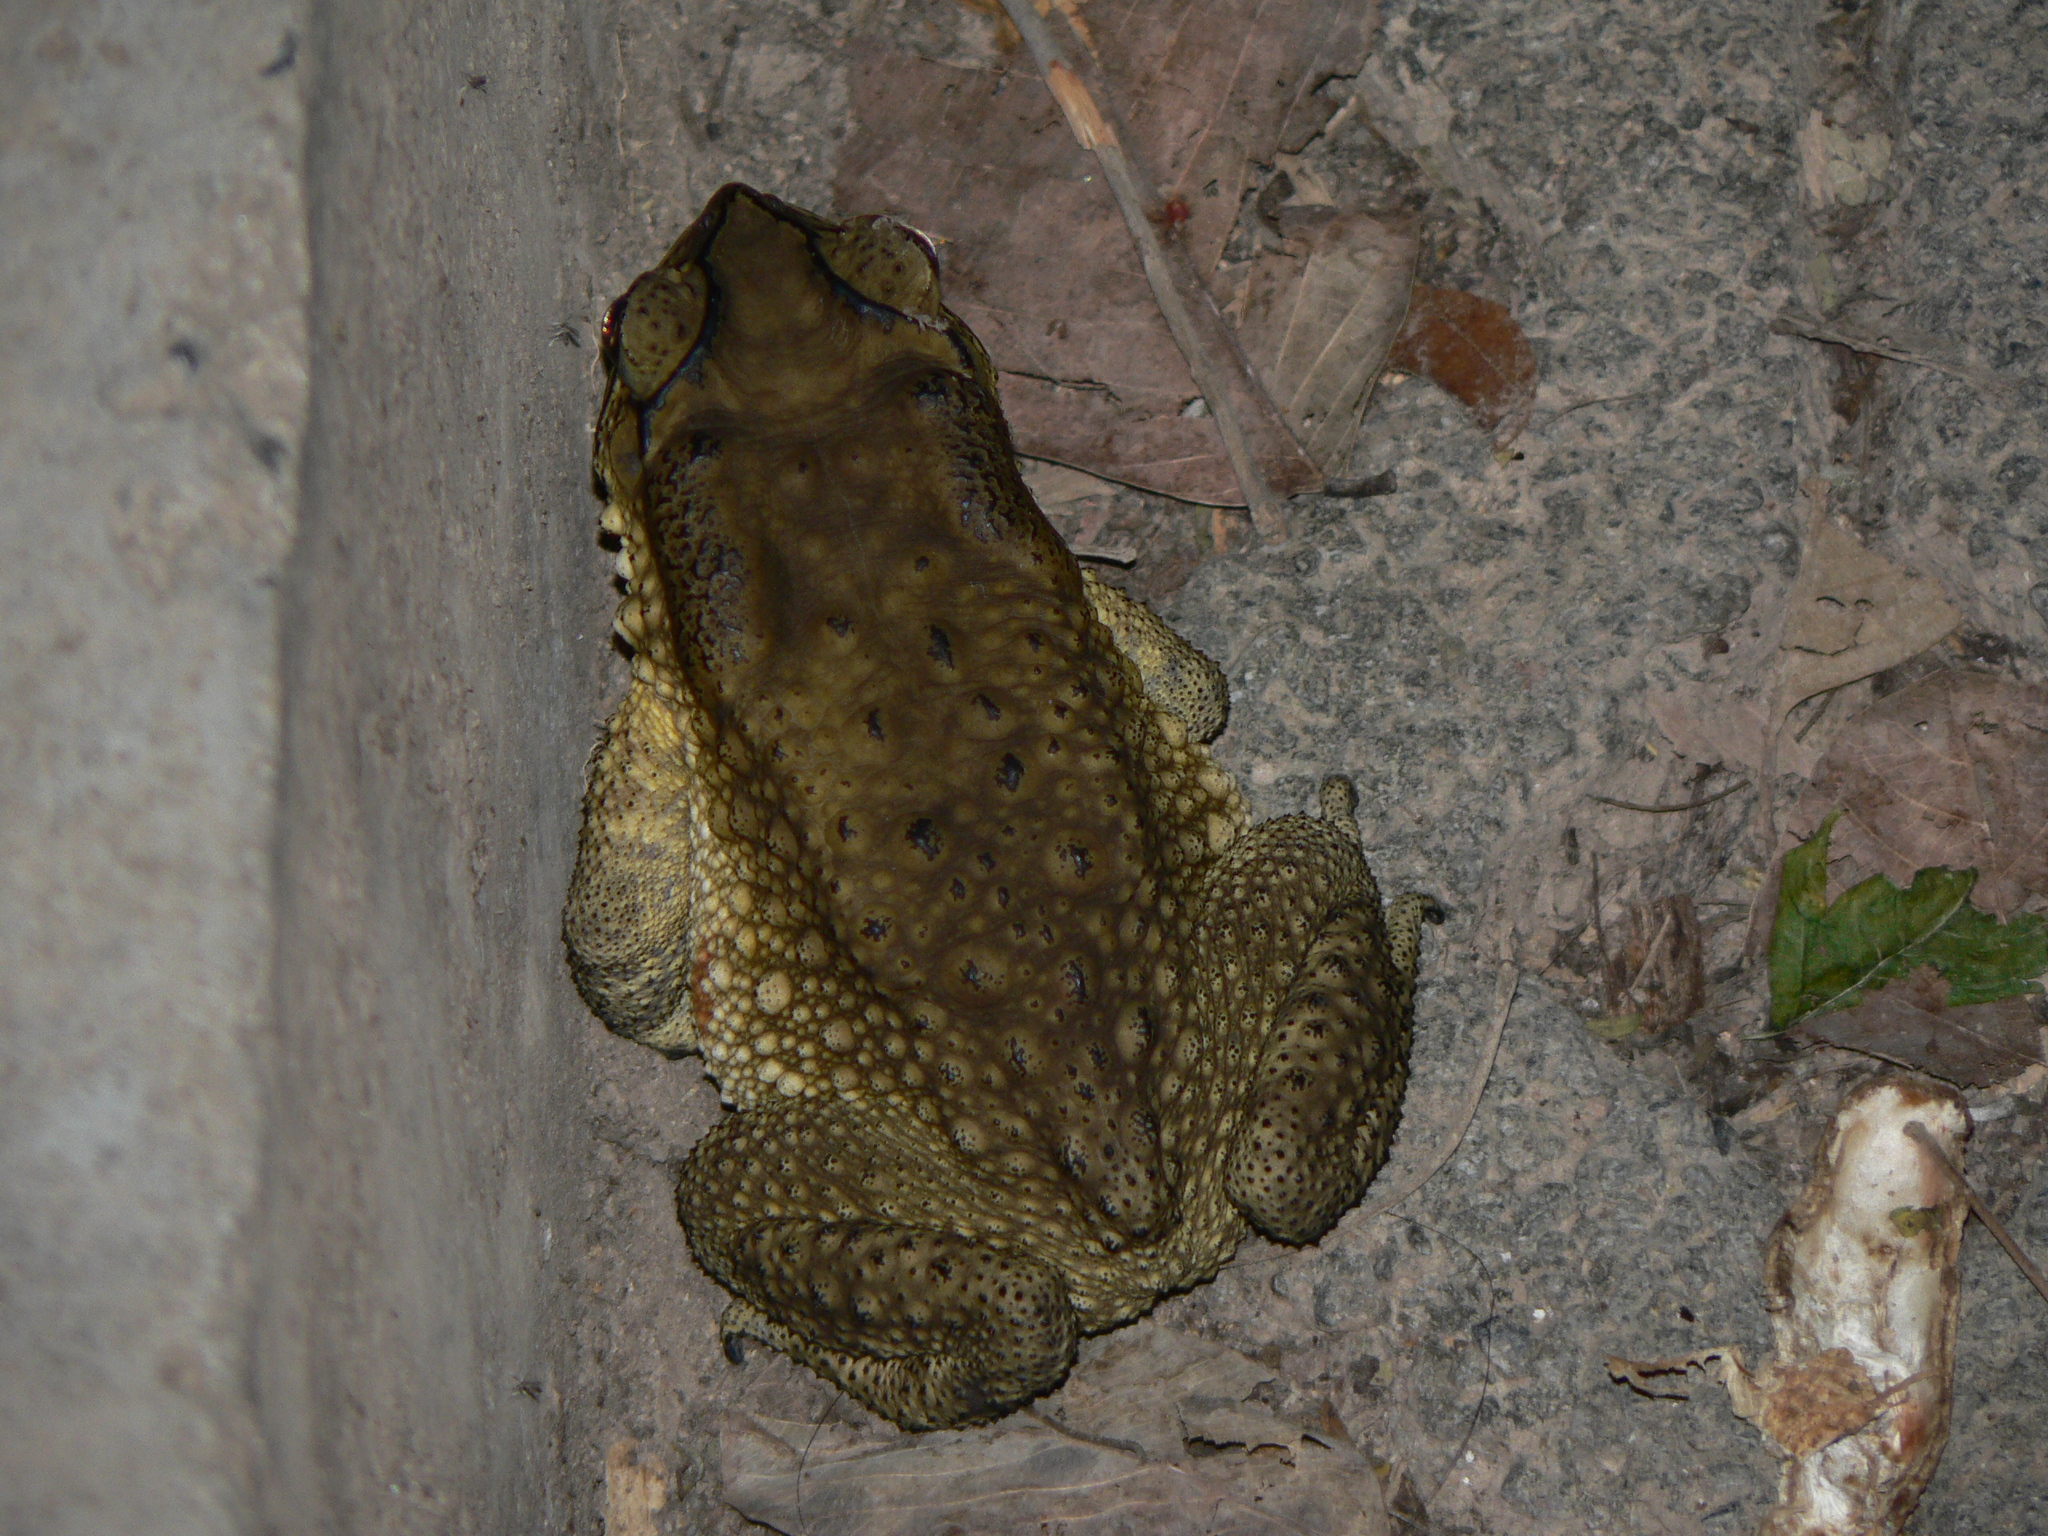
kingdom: Animalia
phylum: Chordata
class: Amphibia
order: Anura
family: Bufonidae
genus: Duttaphrynus
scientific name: Duttaphrynus melanostictus
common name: Common sunda toad
